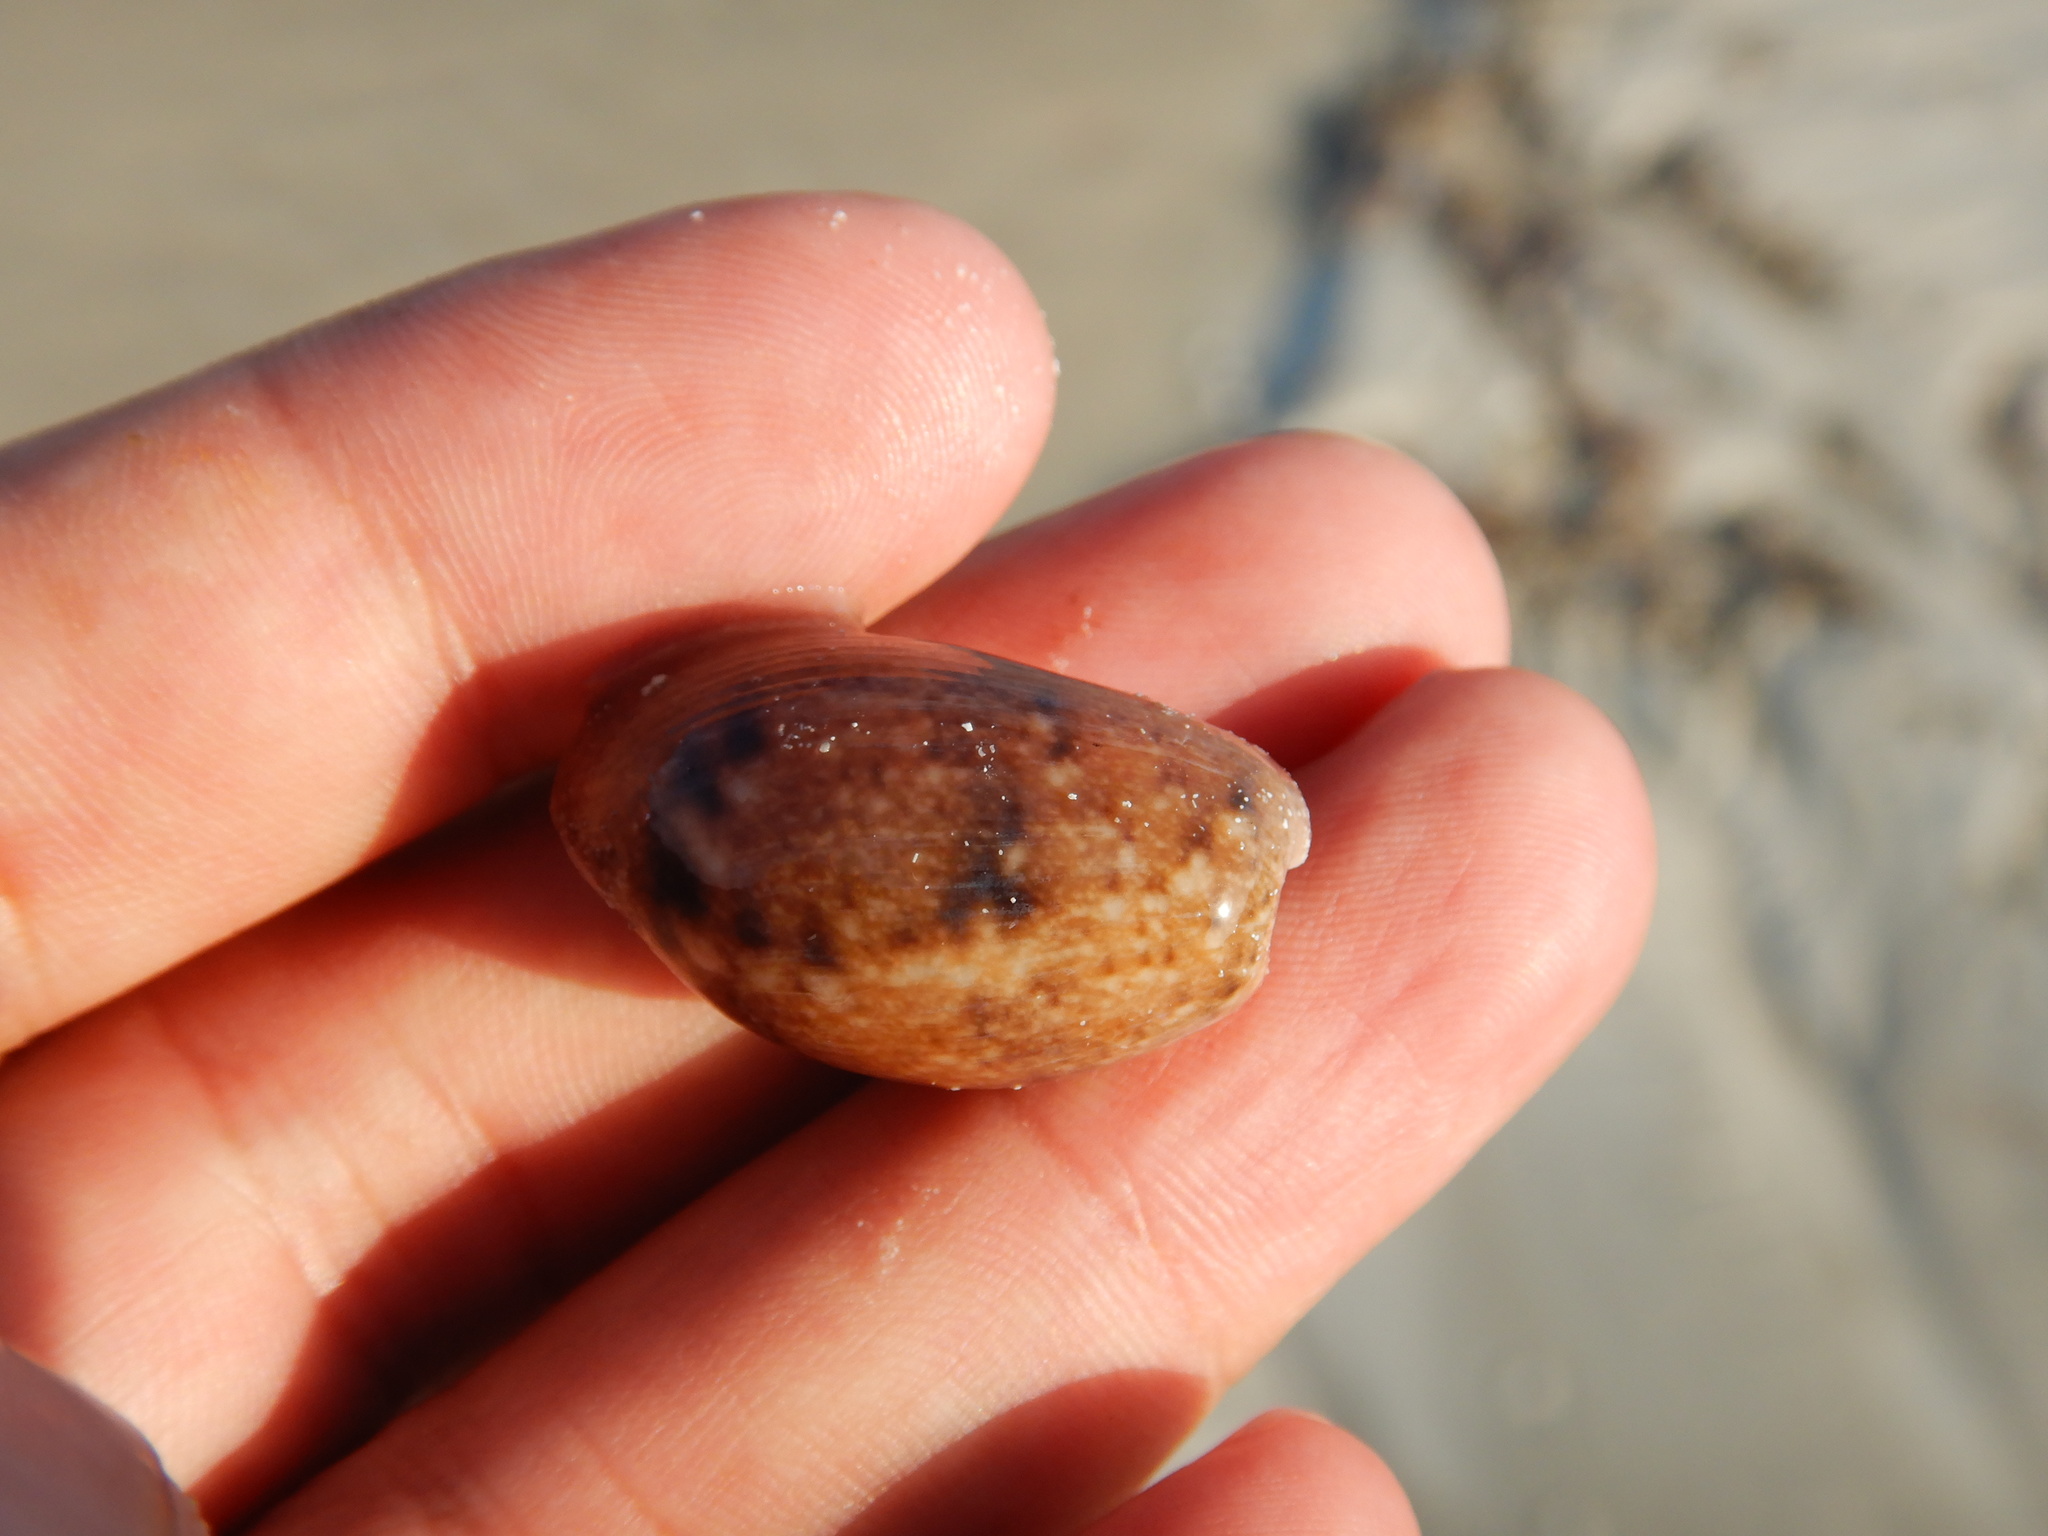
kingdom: Animalia
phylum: Mollusca
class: Gastropoda
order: Cephalaspidea
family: Bullidae
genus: Bulla
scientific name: Bulla occidentalis
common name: Common west-indian bubble
